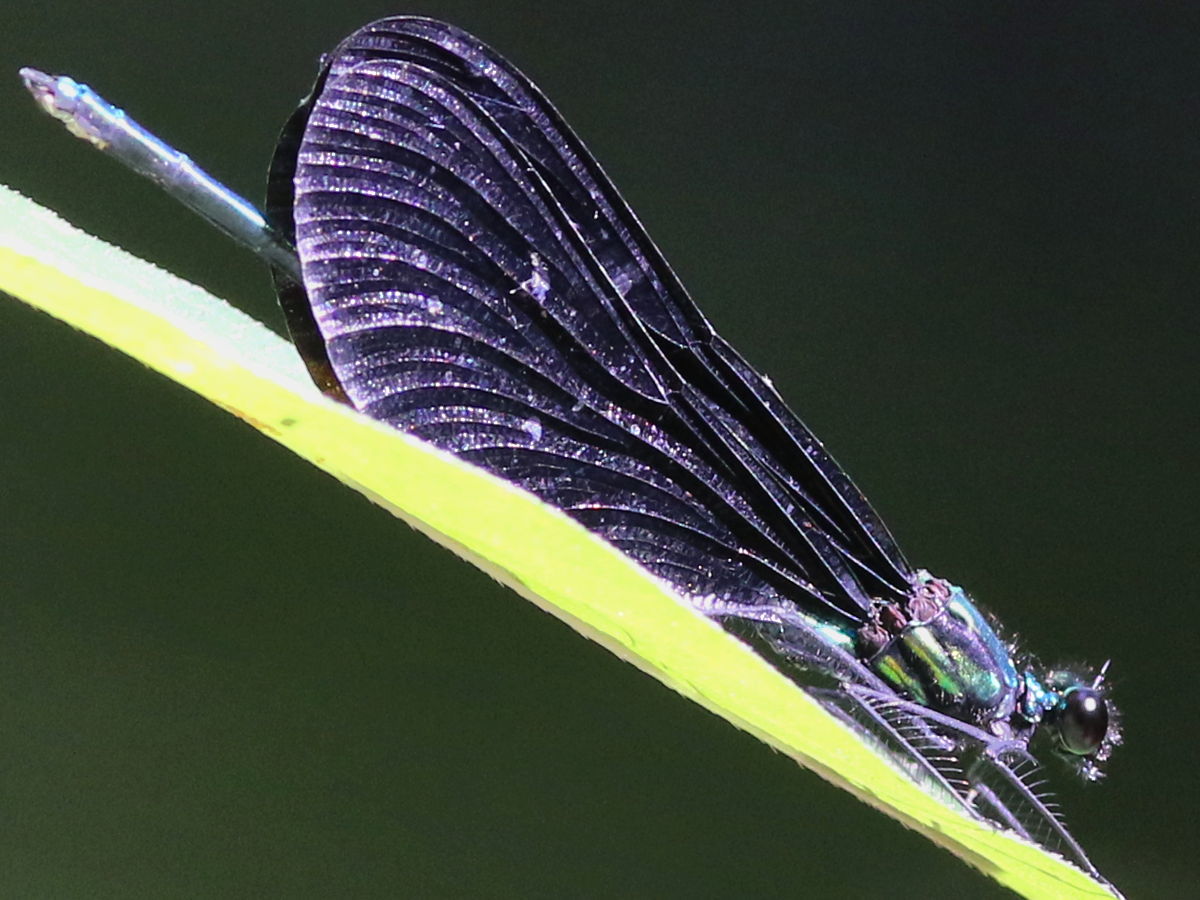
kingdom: Animalia
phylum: Arthropoda
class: Insecta
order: Odonata
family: Calopterygidae
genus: Calopteryx
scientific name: Calopteryx maculata
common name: Ebony jewelwing
